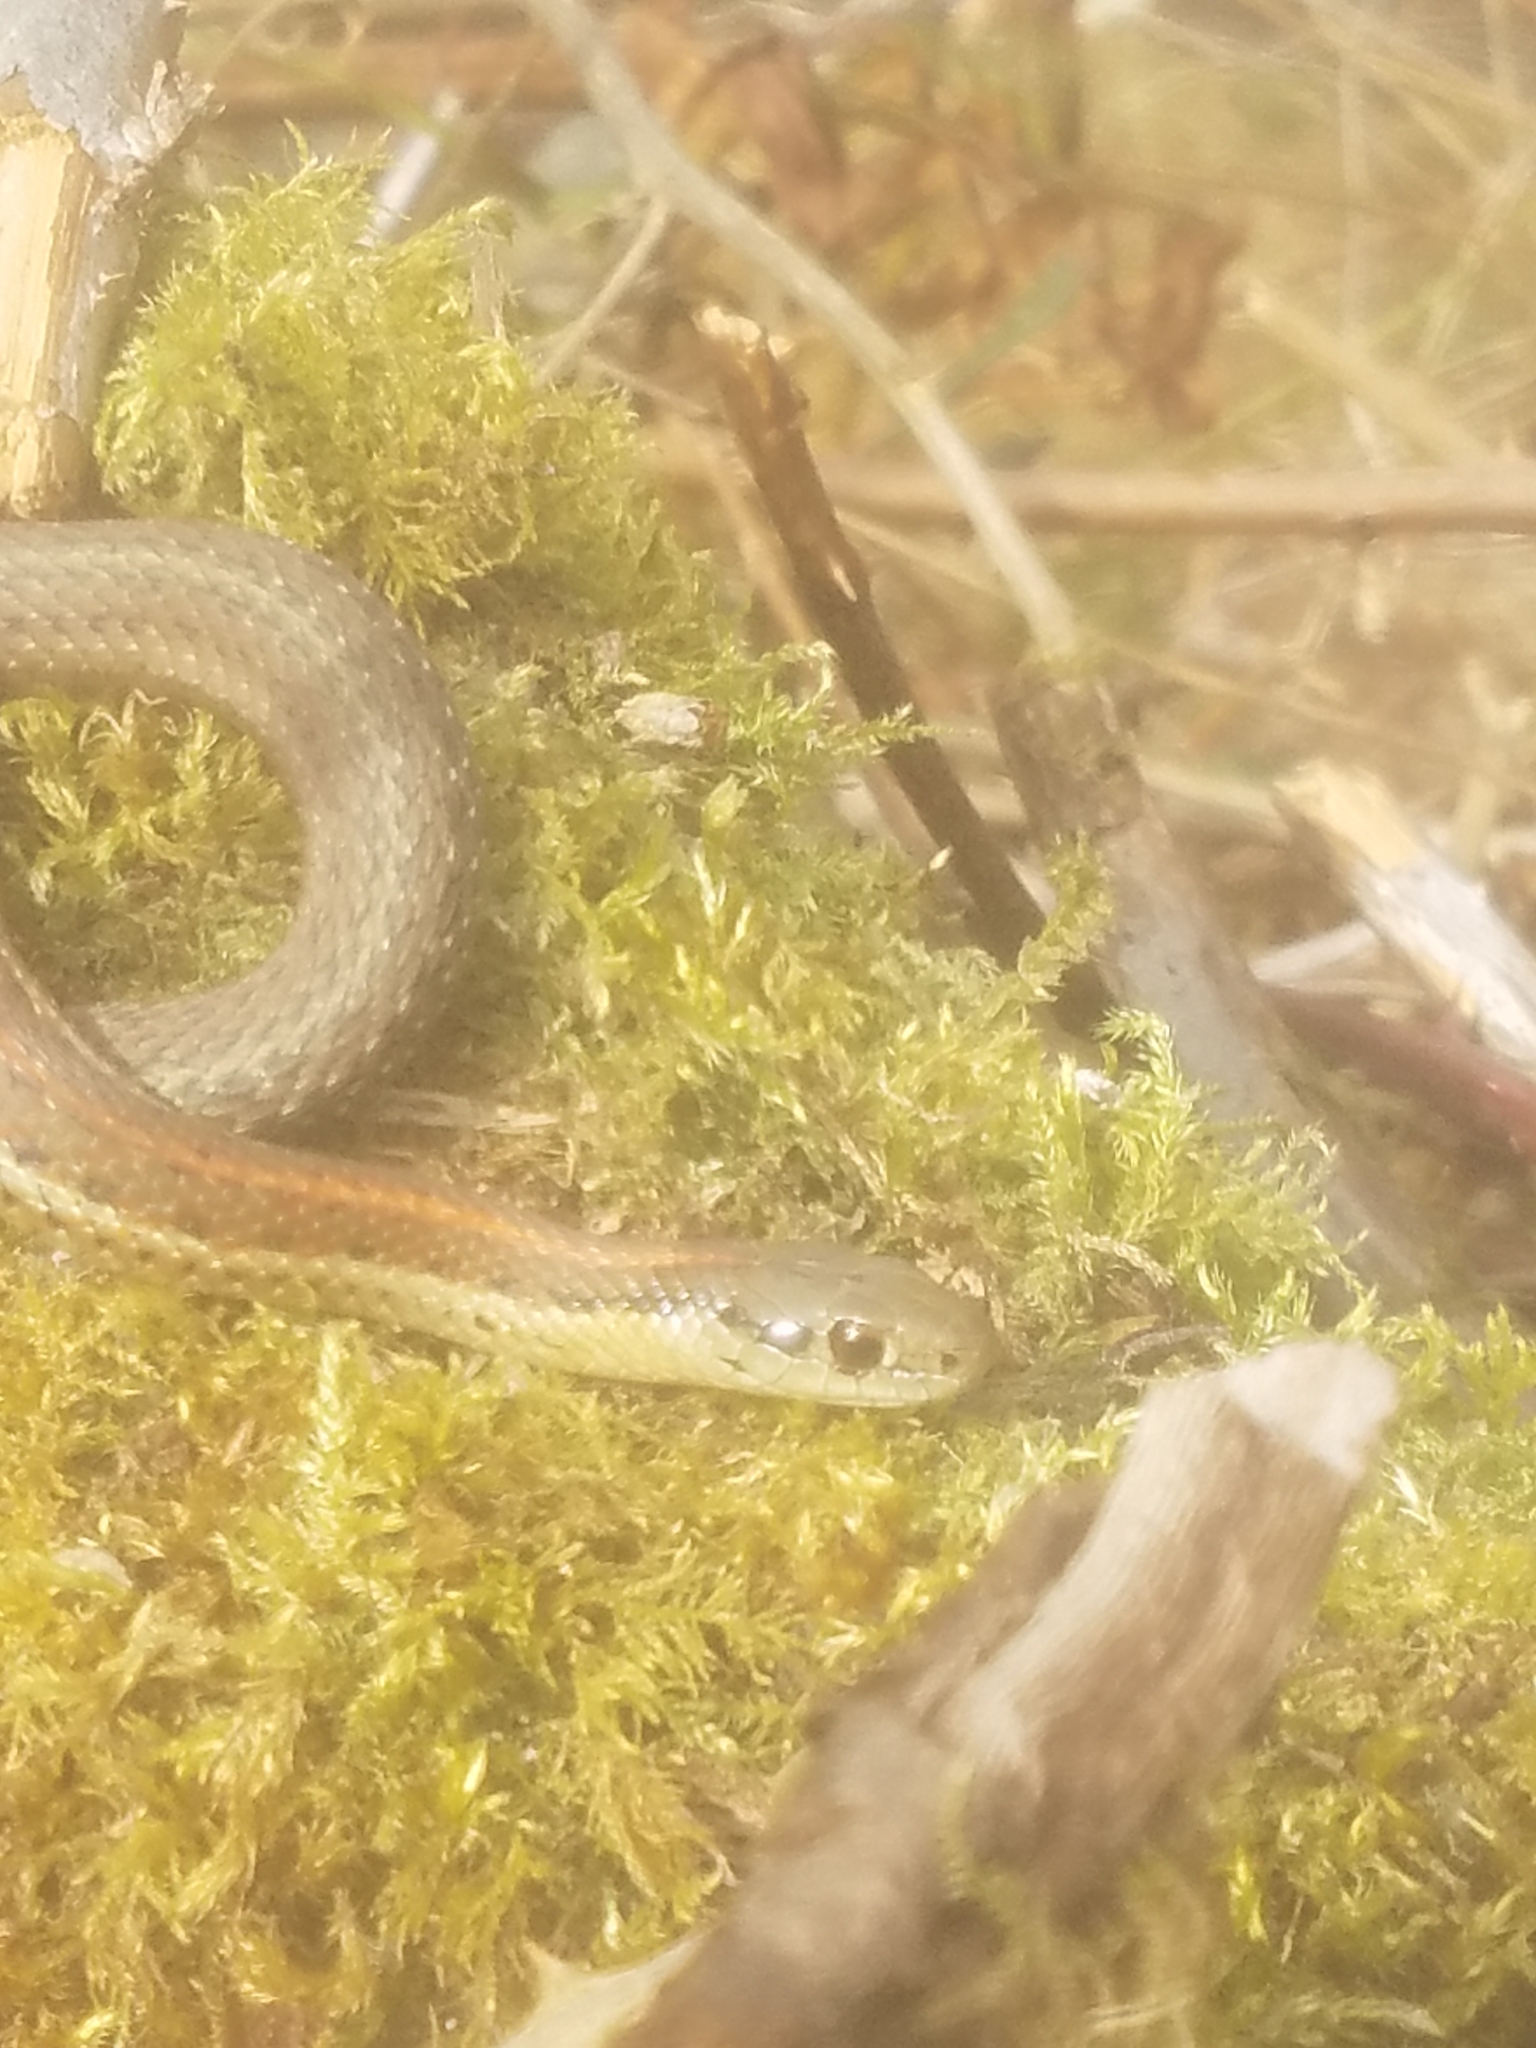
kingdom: Animalia
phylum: Chordata
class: Squamata
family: Colubridae
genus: Thamnophis
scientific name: Thamnophis ordinoides
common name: Northwestern garter snake
